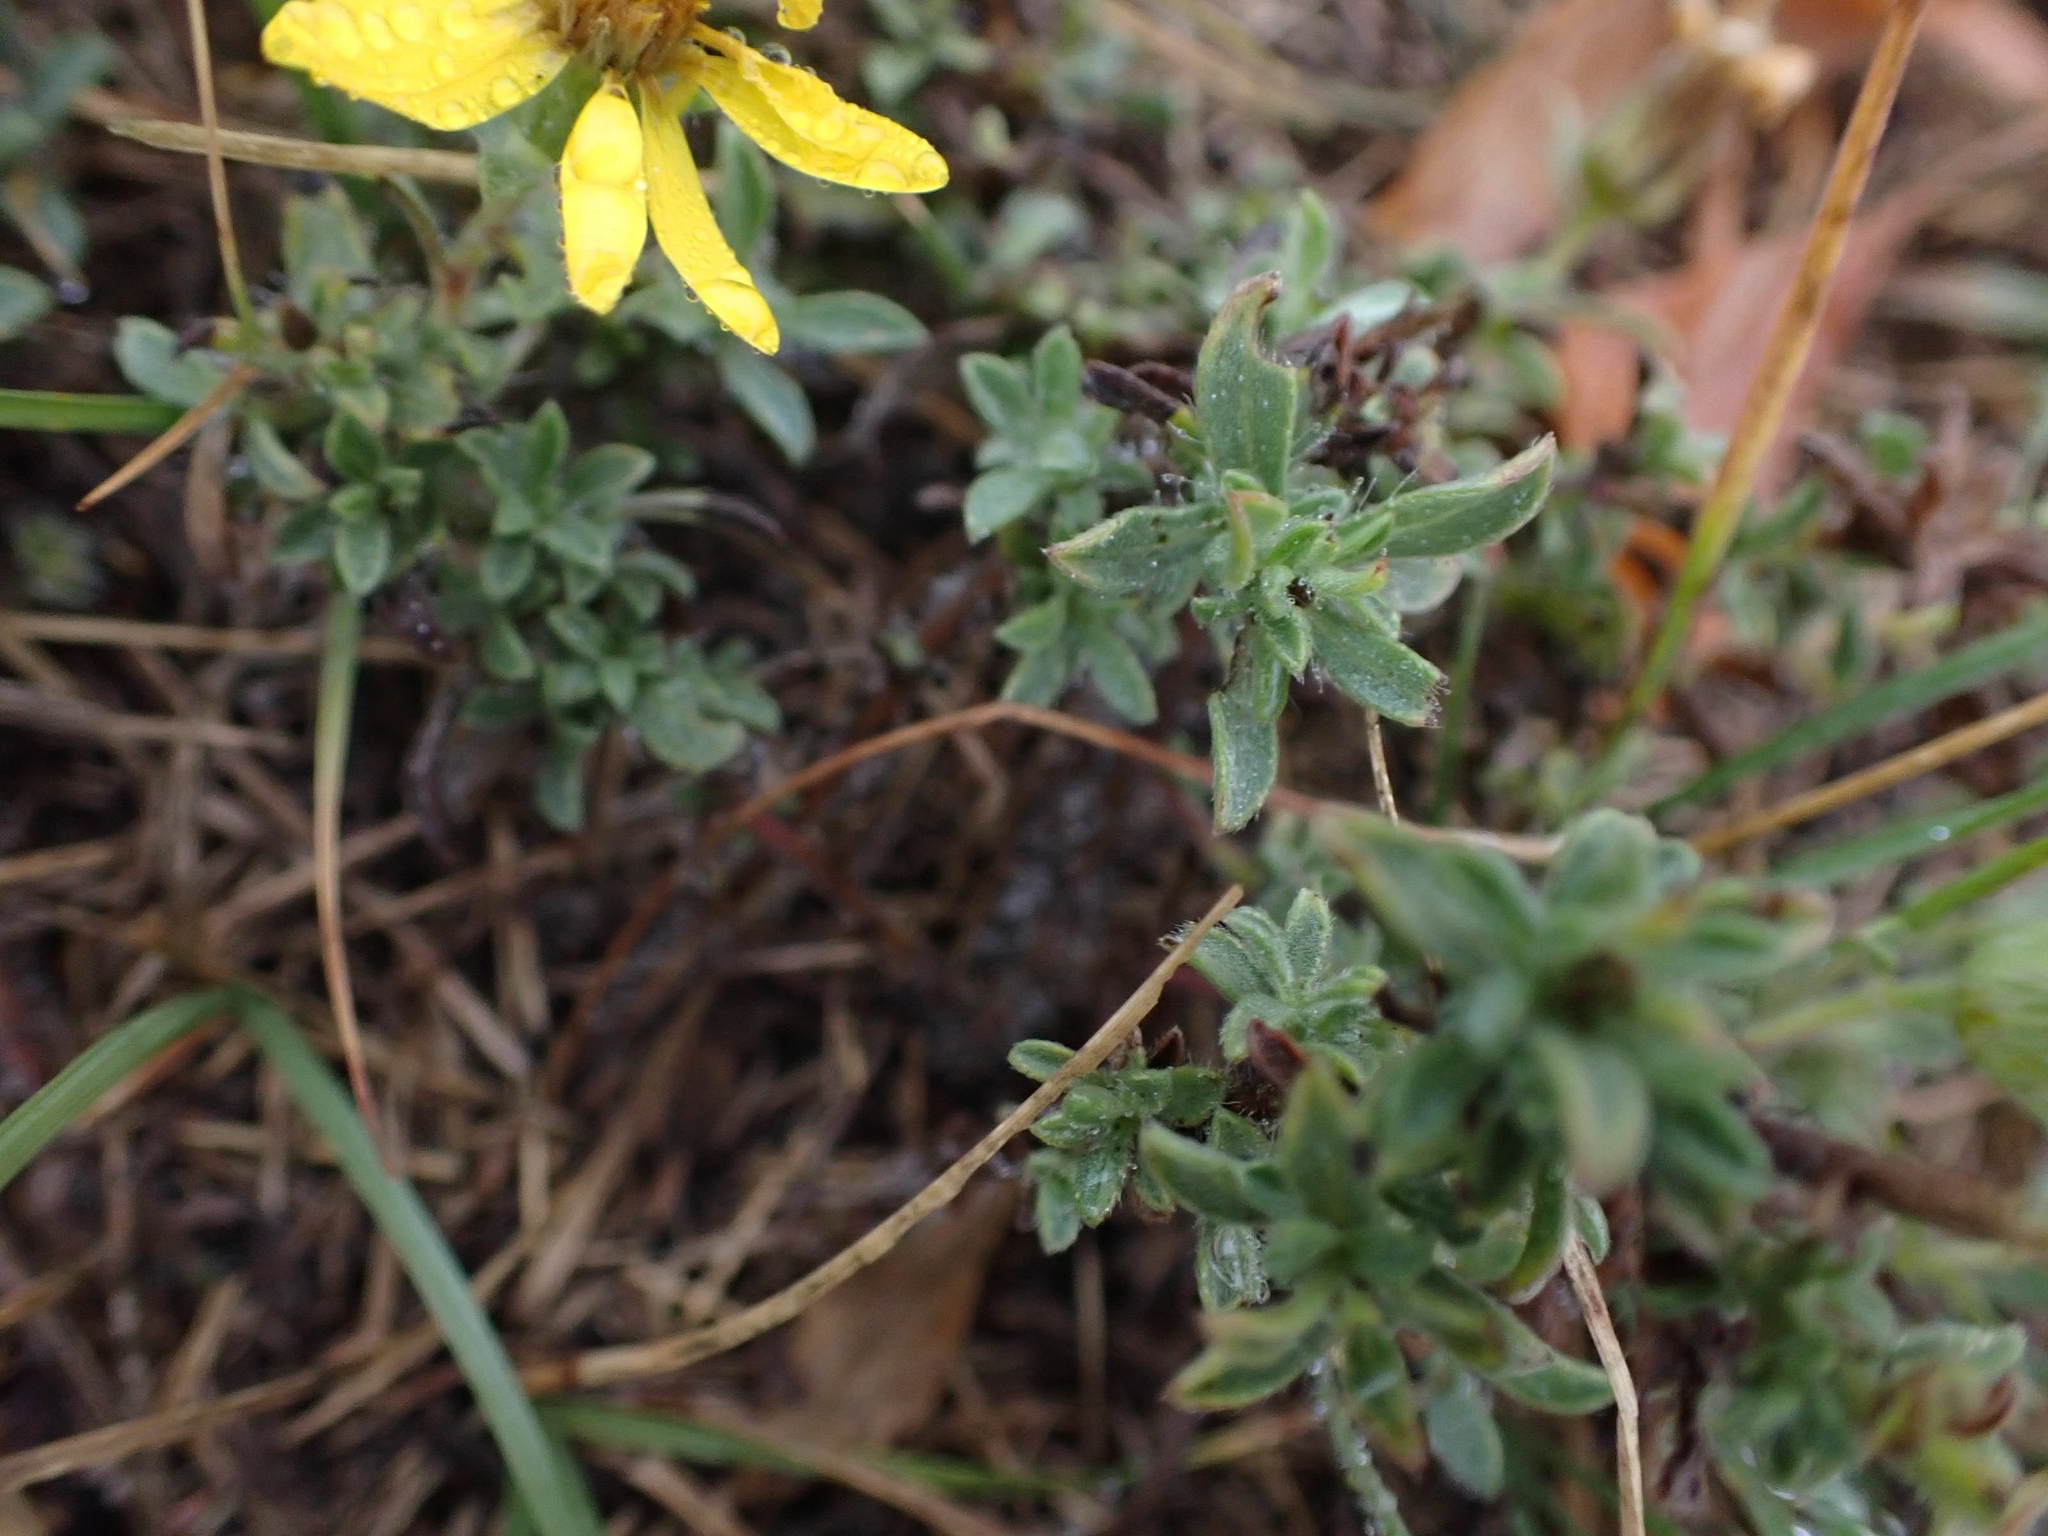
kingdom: Plantae
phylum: Tracheophyta
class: Magnoliopsida
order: Asterales
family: Asteraceae
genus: Heterotheca
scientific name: Heterotheca villosa
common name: Hairy false goldenaster
